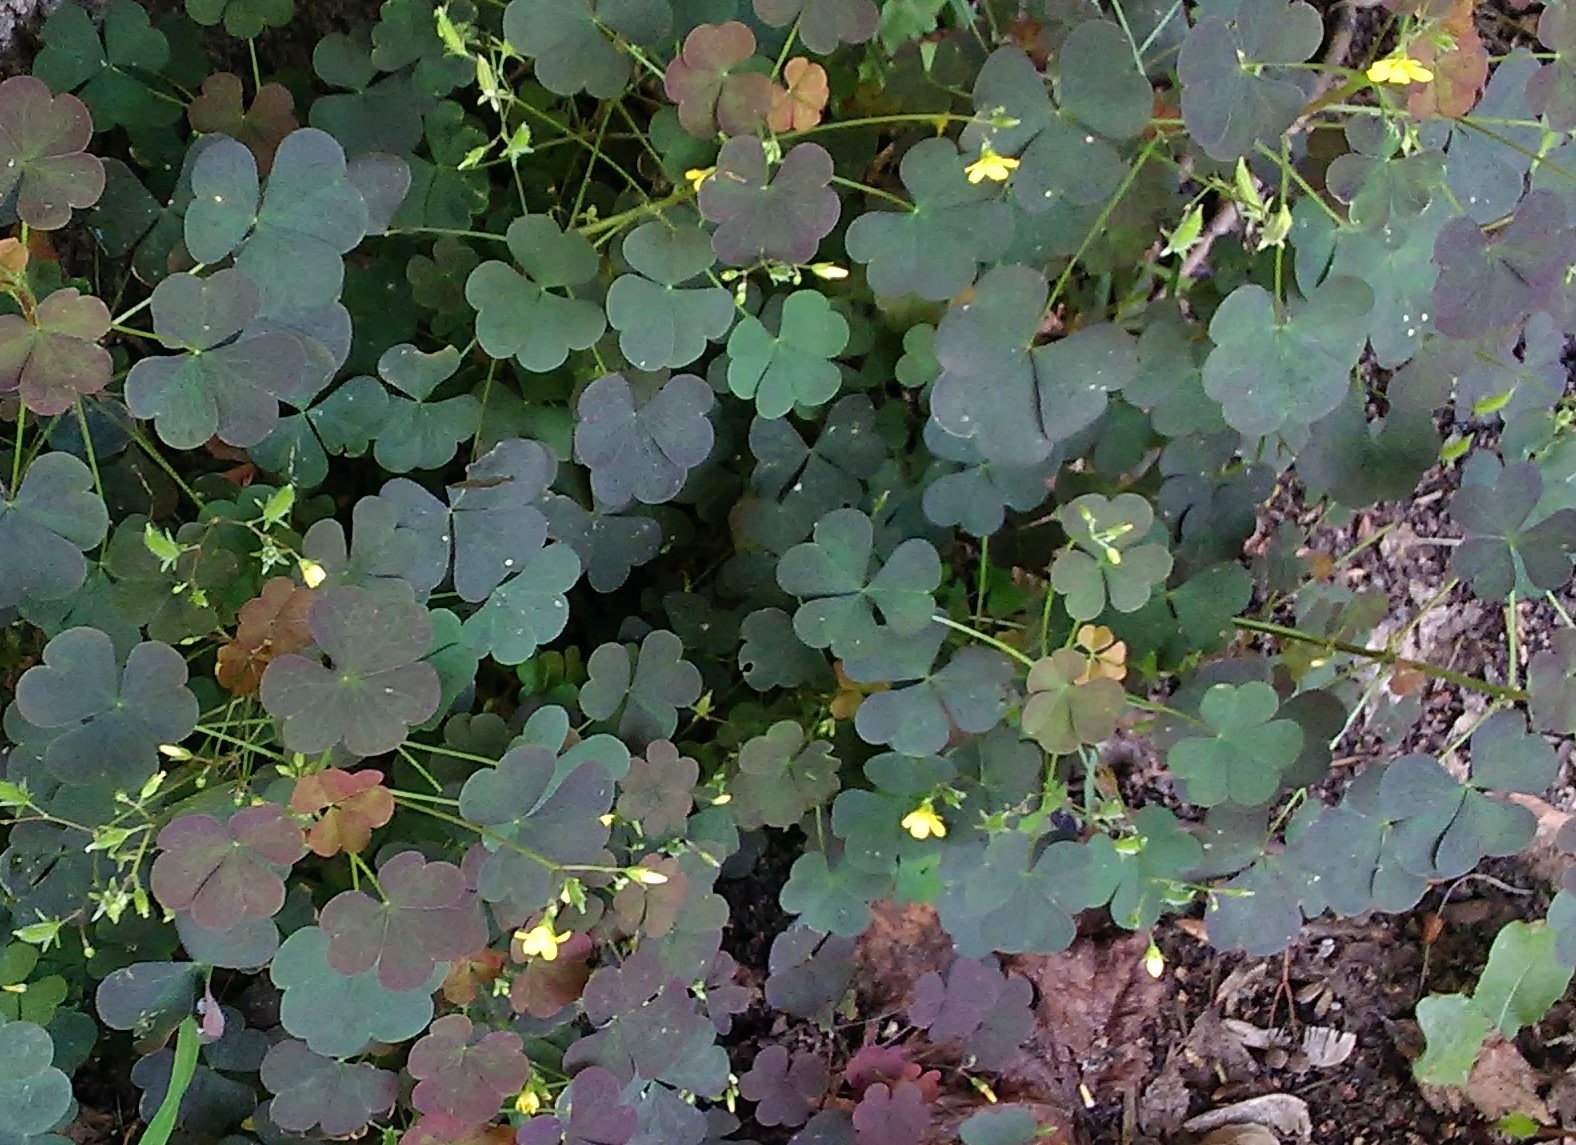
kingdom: Plantae
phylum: Tracheophyta
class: Magnoliopsida
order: Oxalidales
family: Oxalidaceae
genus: Oxalis
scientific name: Oxalis stricta
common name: Upright yellow-sorrel
